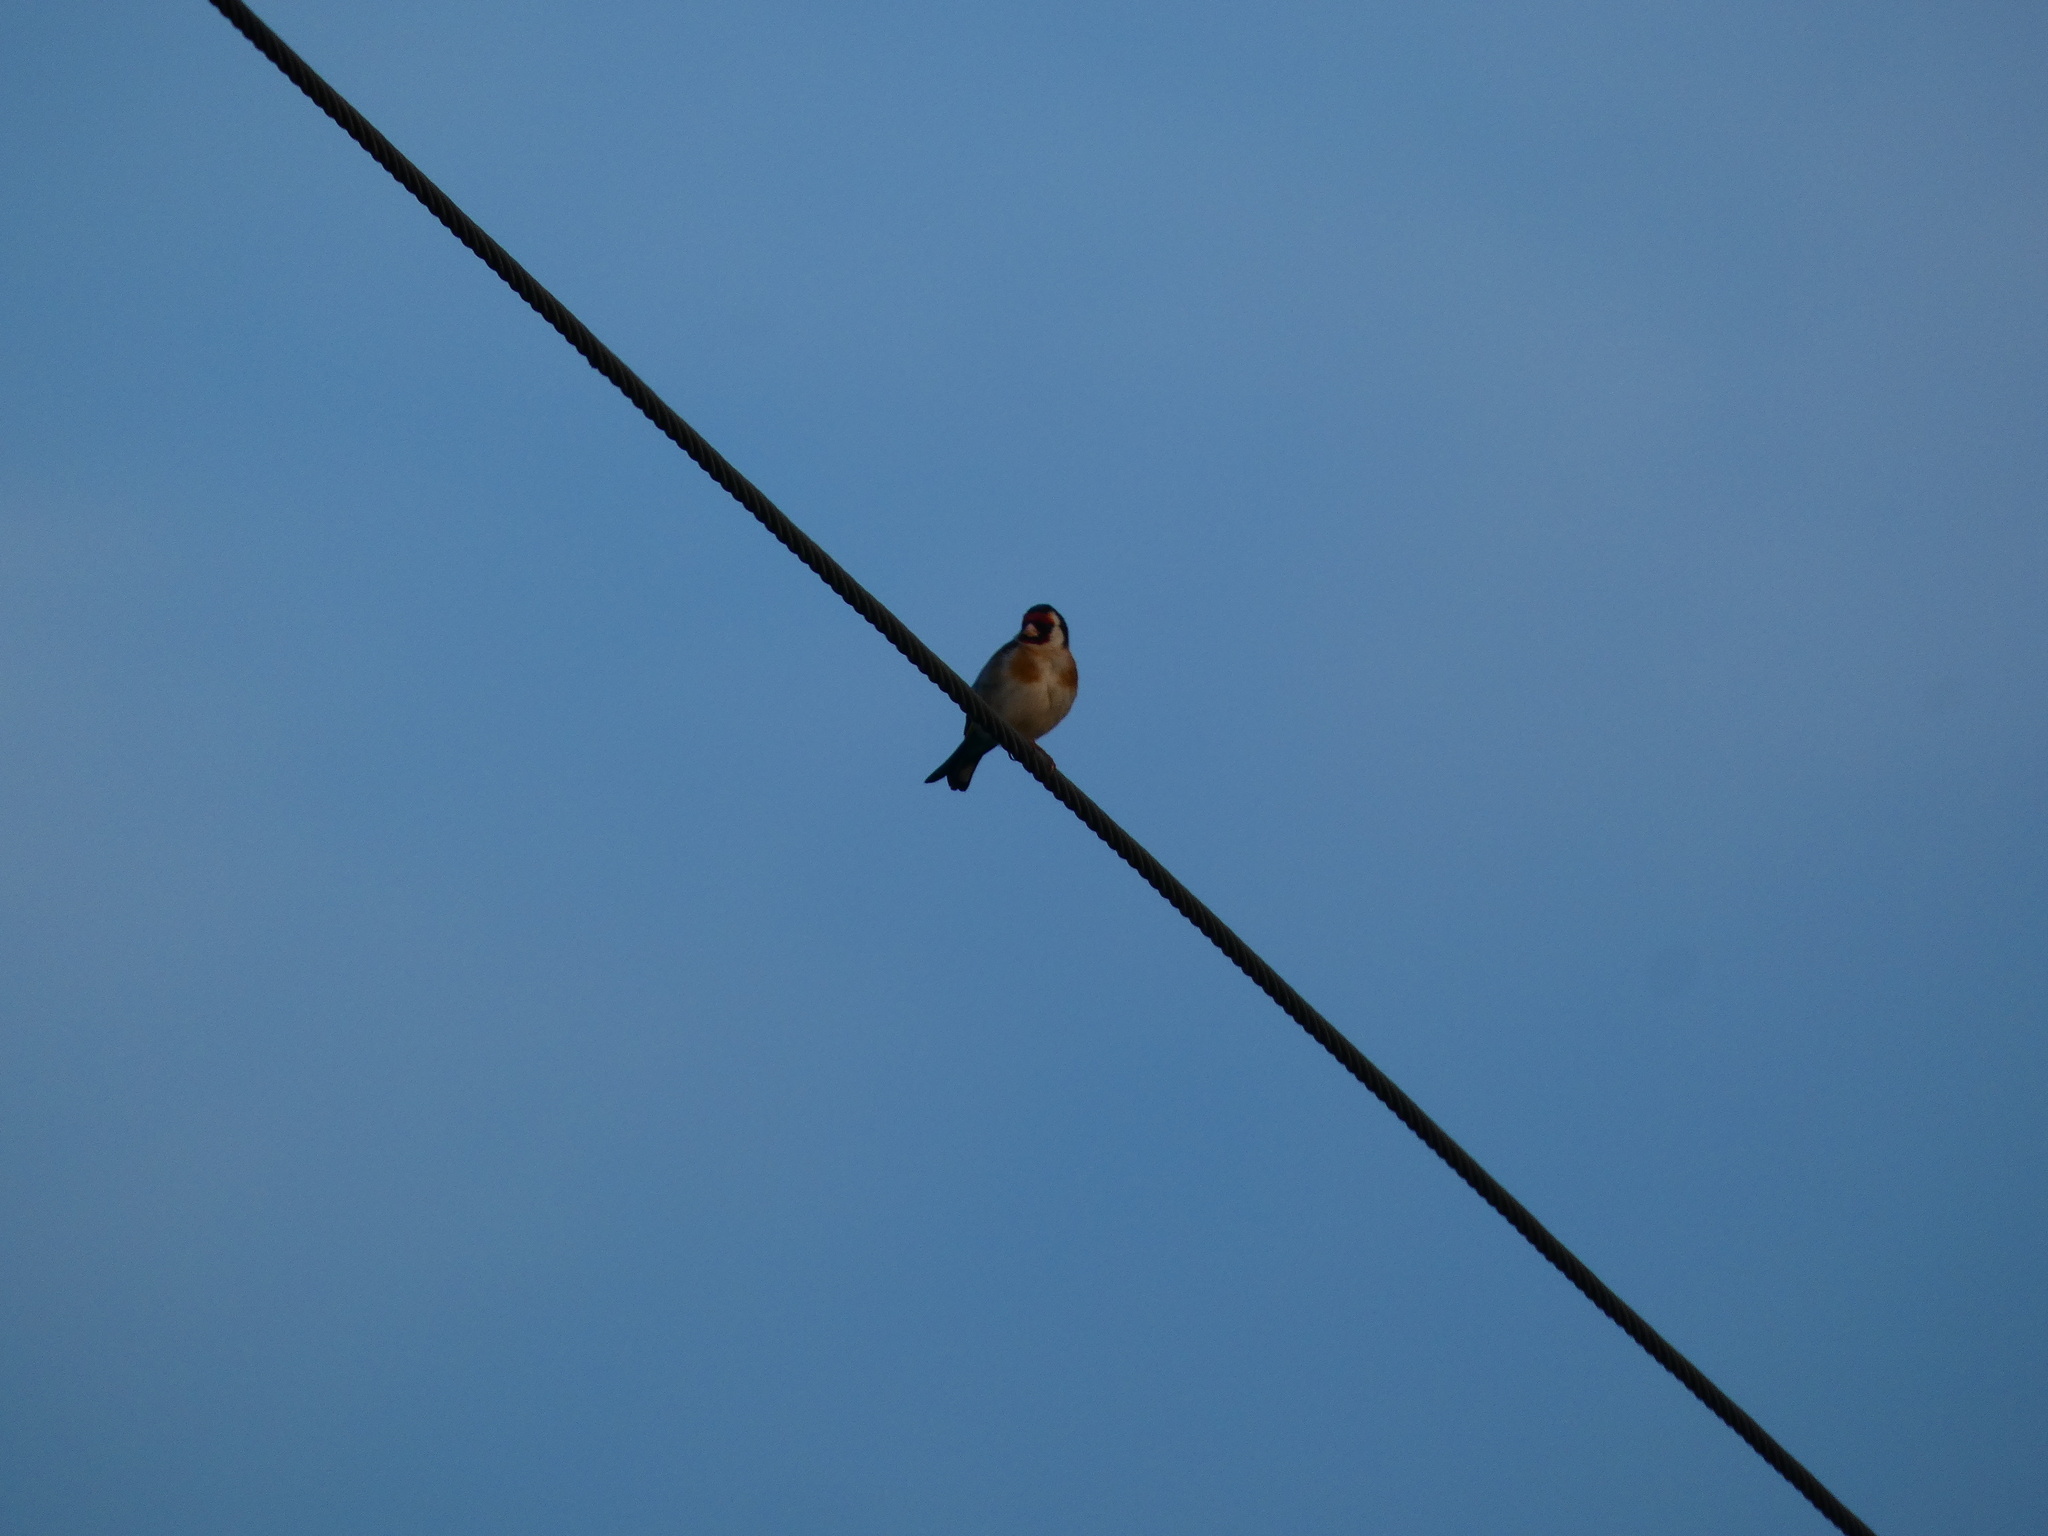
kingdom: Animalia
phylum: Chordata
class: Aves
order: Passeriformes
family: Fringillidae
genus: Carduelis
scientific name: Carduelis carduelis
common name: European goldfinch
